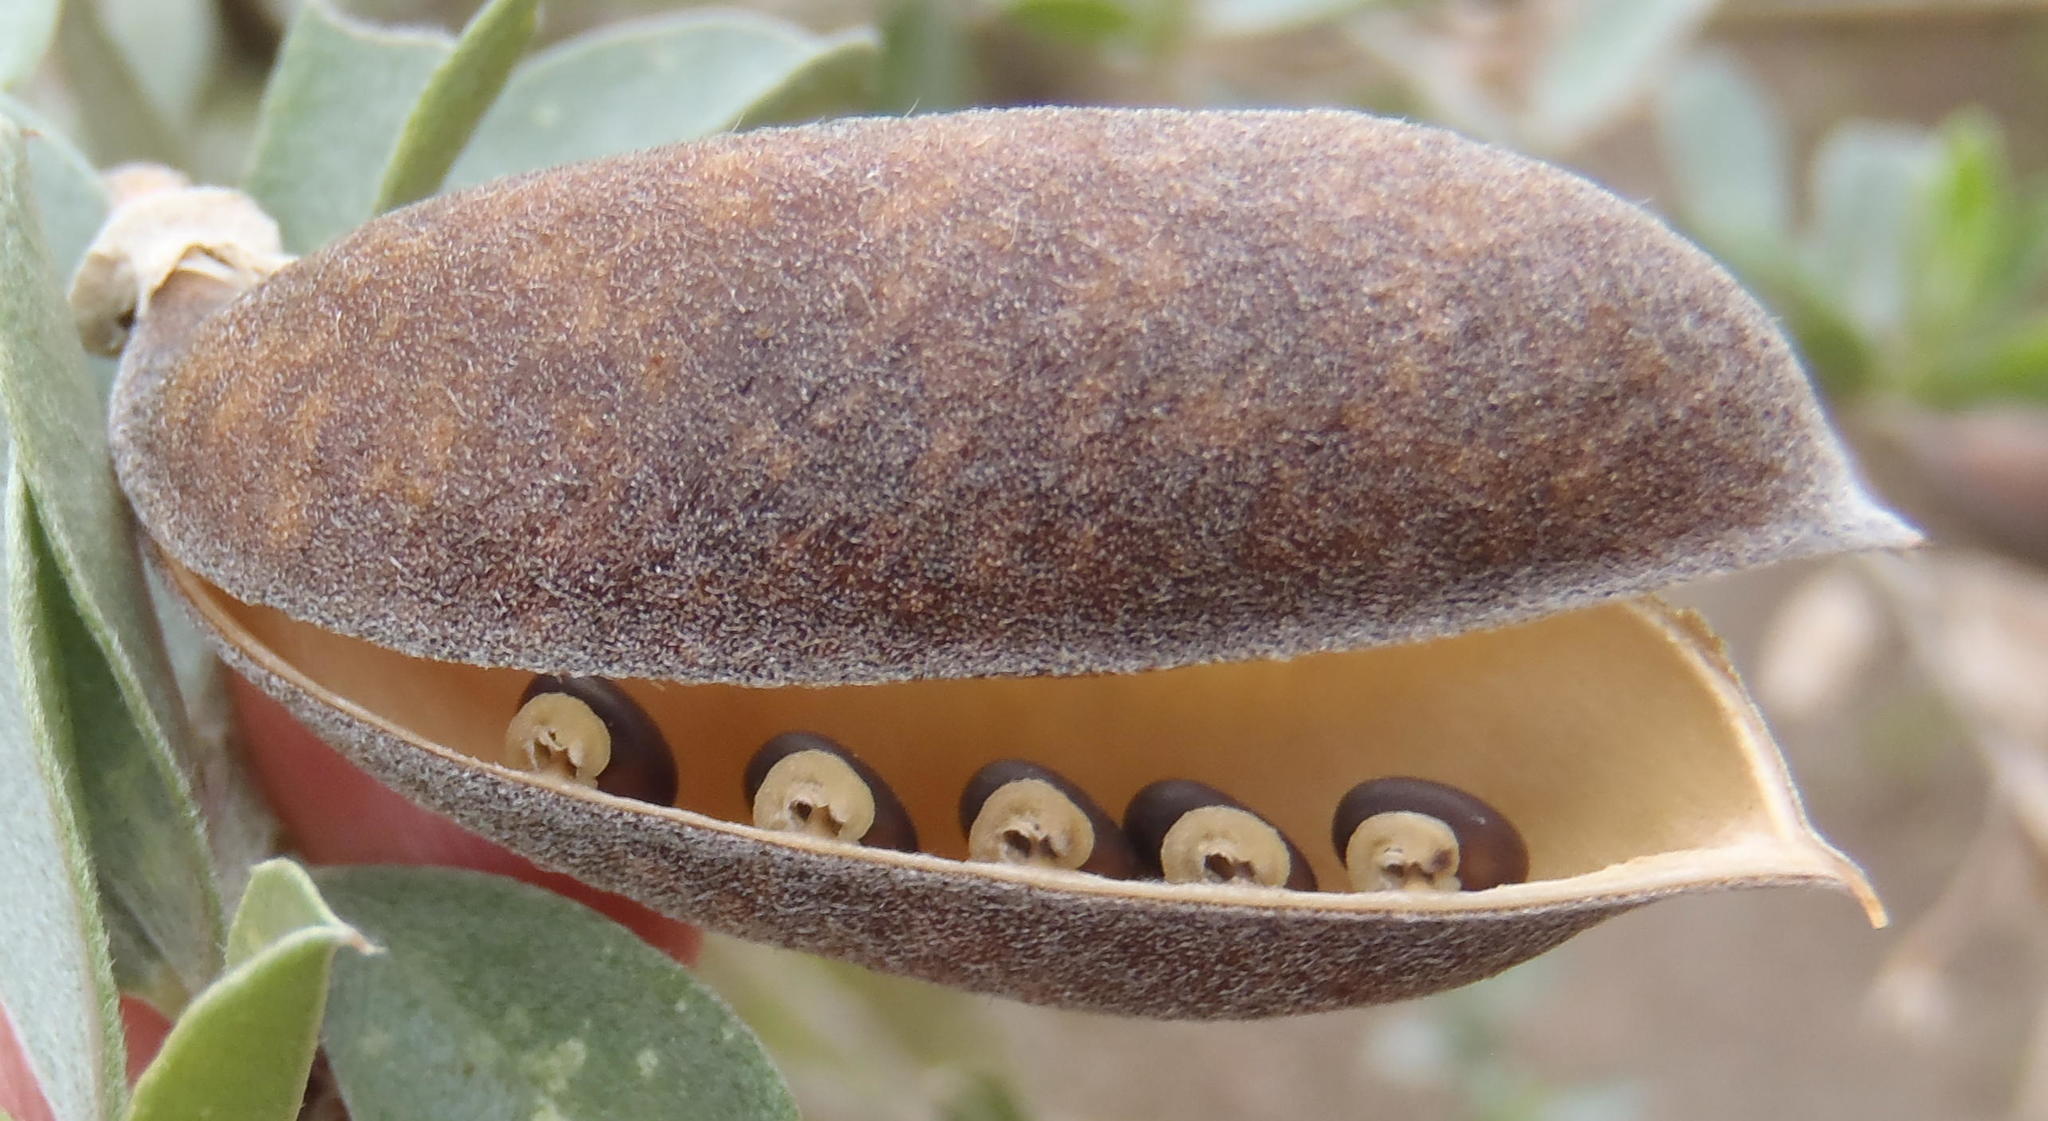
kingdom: Plantae
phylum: Tracheophyta
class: Magnoliopsida
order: Fabales
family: Fabaceae
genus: Podalyria
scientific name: Podalyria myrtillifolia
